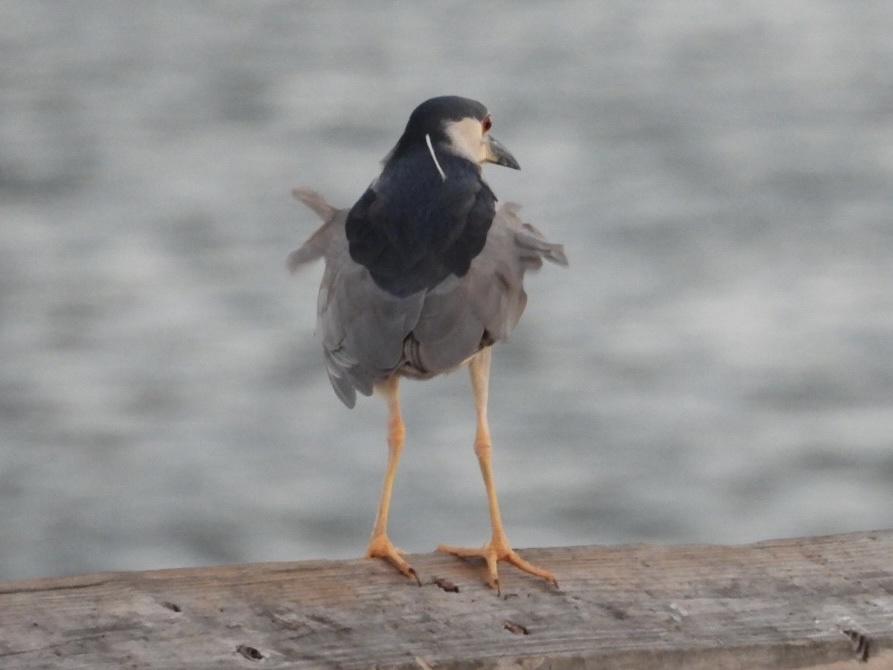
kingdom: Animalia
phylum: Chordata
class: Aves
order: Pelecaniformes
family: Ardeidae
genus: Nycticorax
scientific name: Nycticorax nycticorax
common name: Black-crowned night heron
